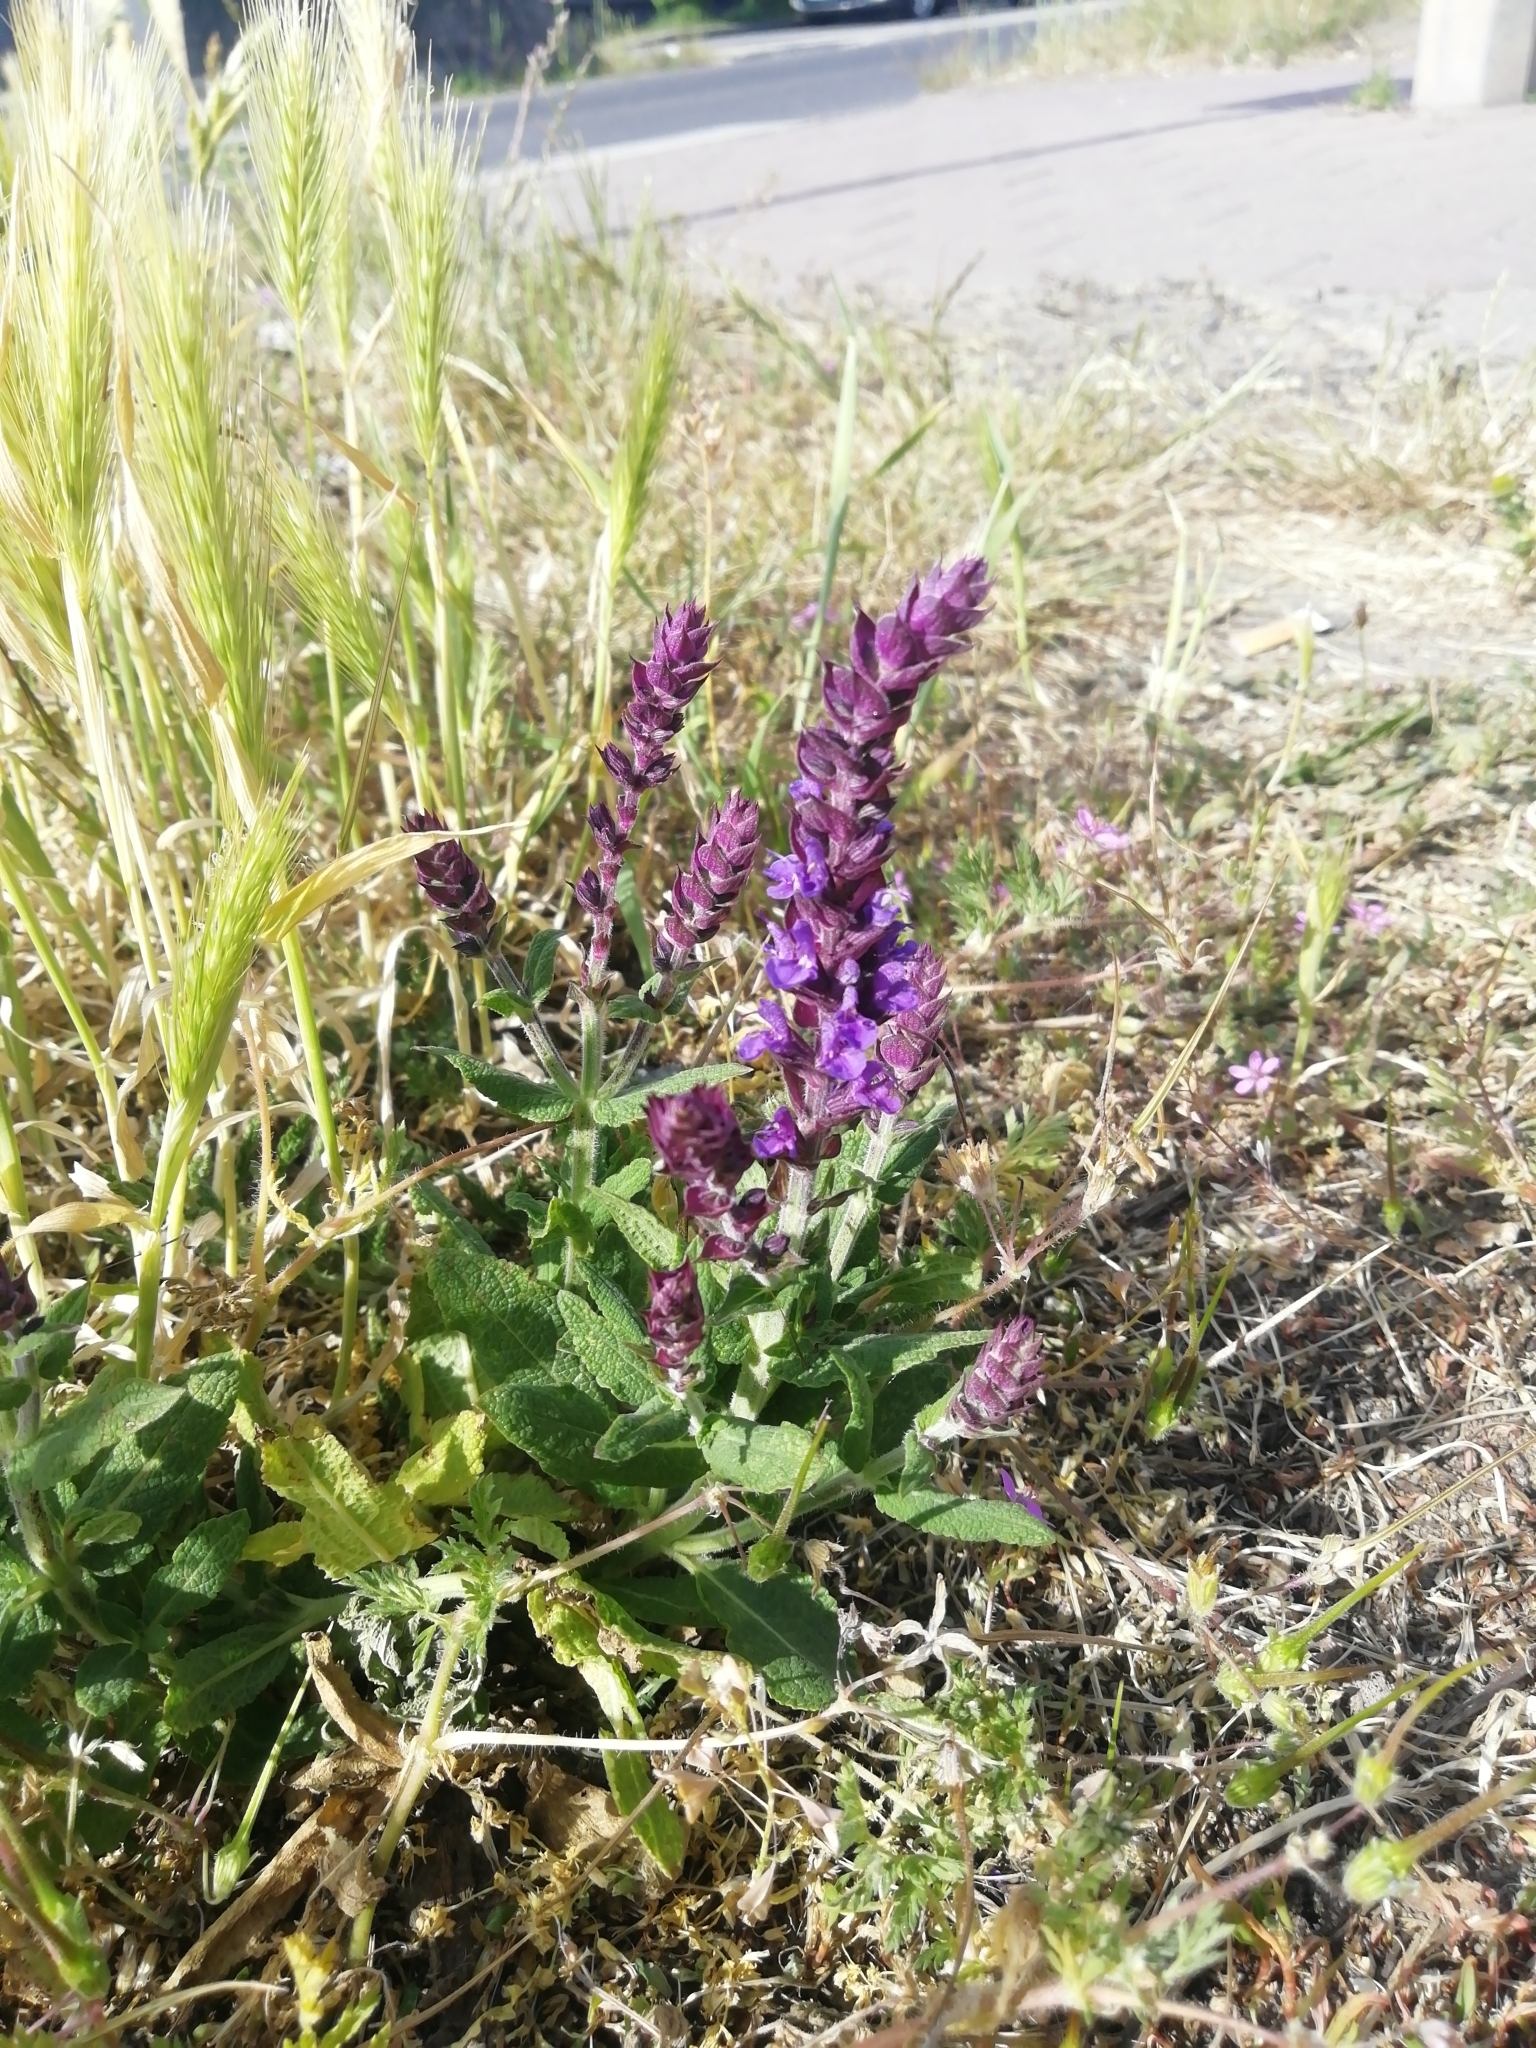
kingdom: Plantae
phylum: Tracheophyta
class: Magnoliopsida
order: Lamiales
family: Lamiaceae
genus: Salvia
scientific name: Salvia nemorosa
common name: Balkan clary
